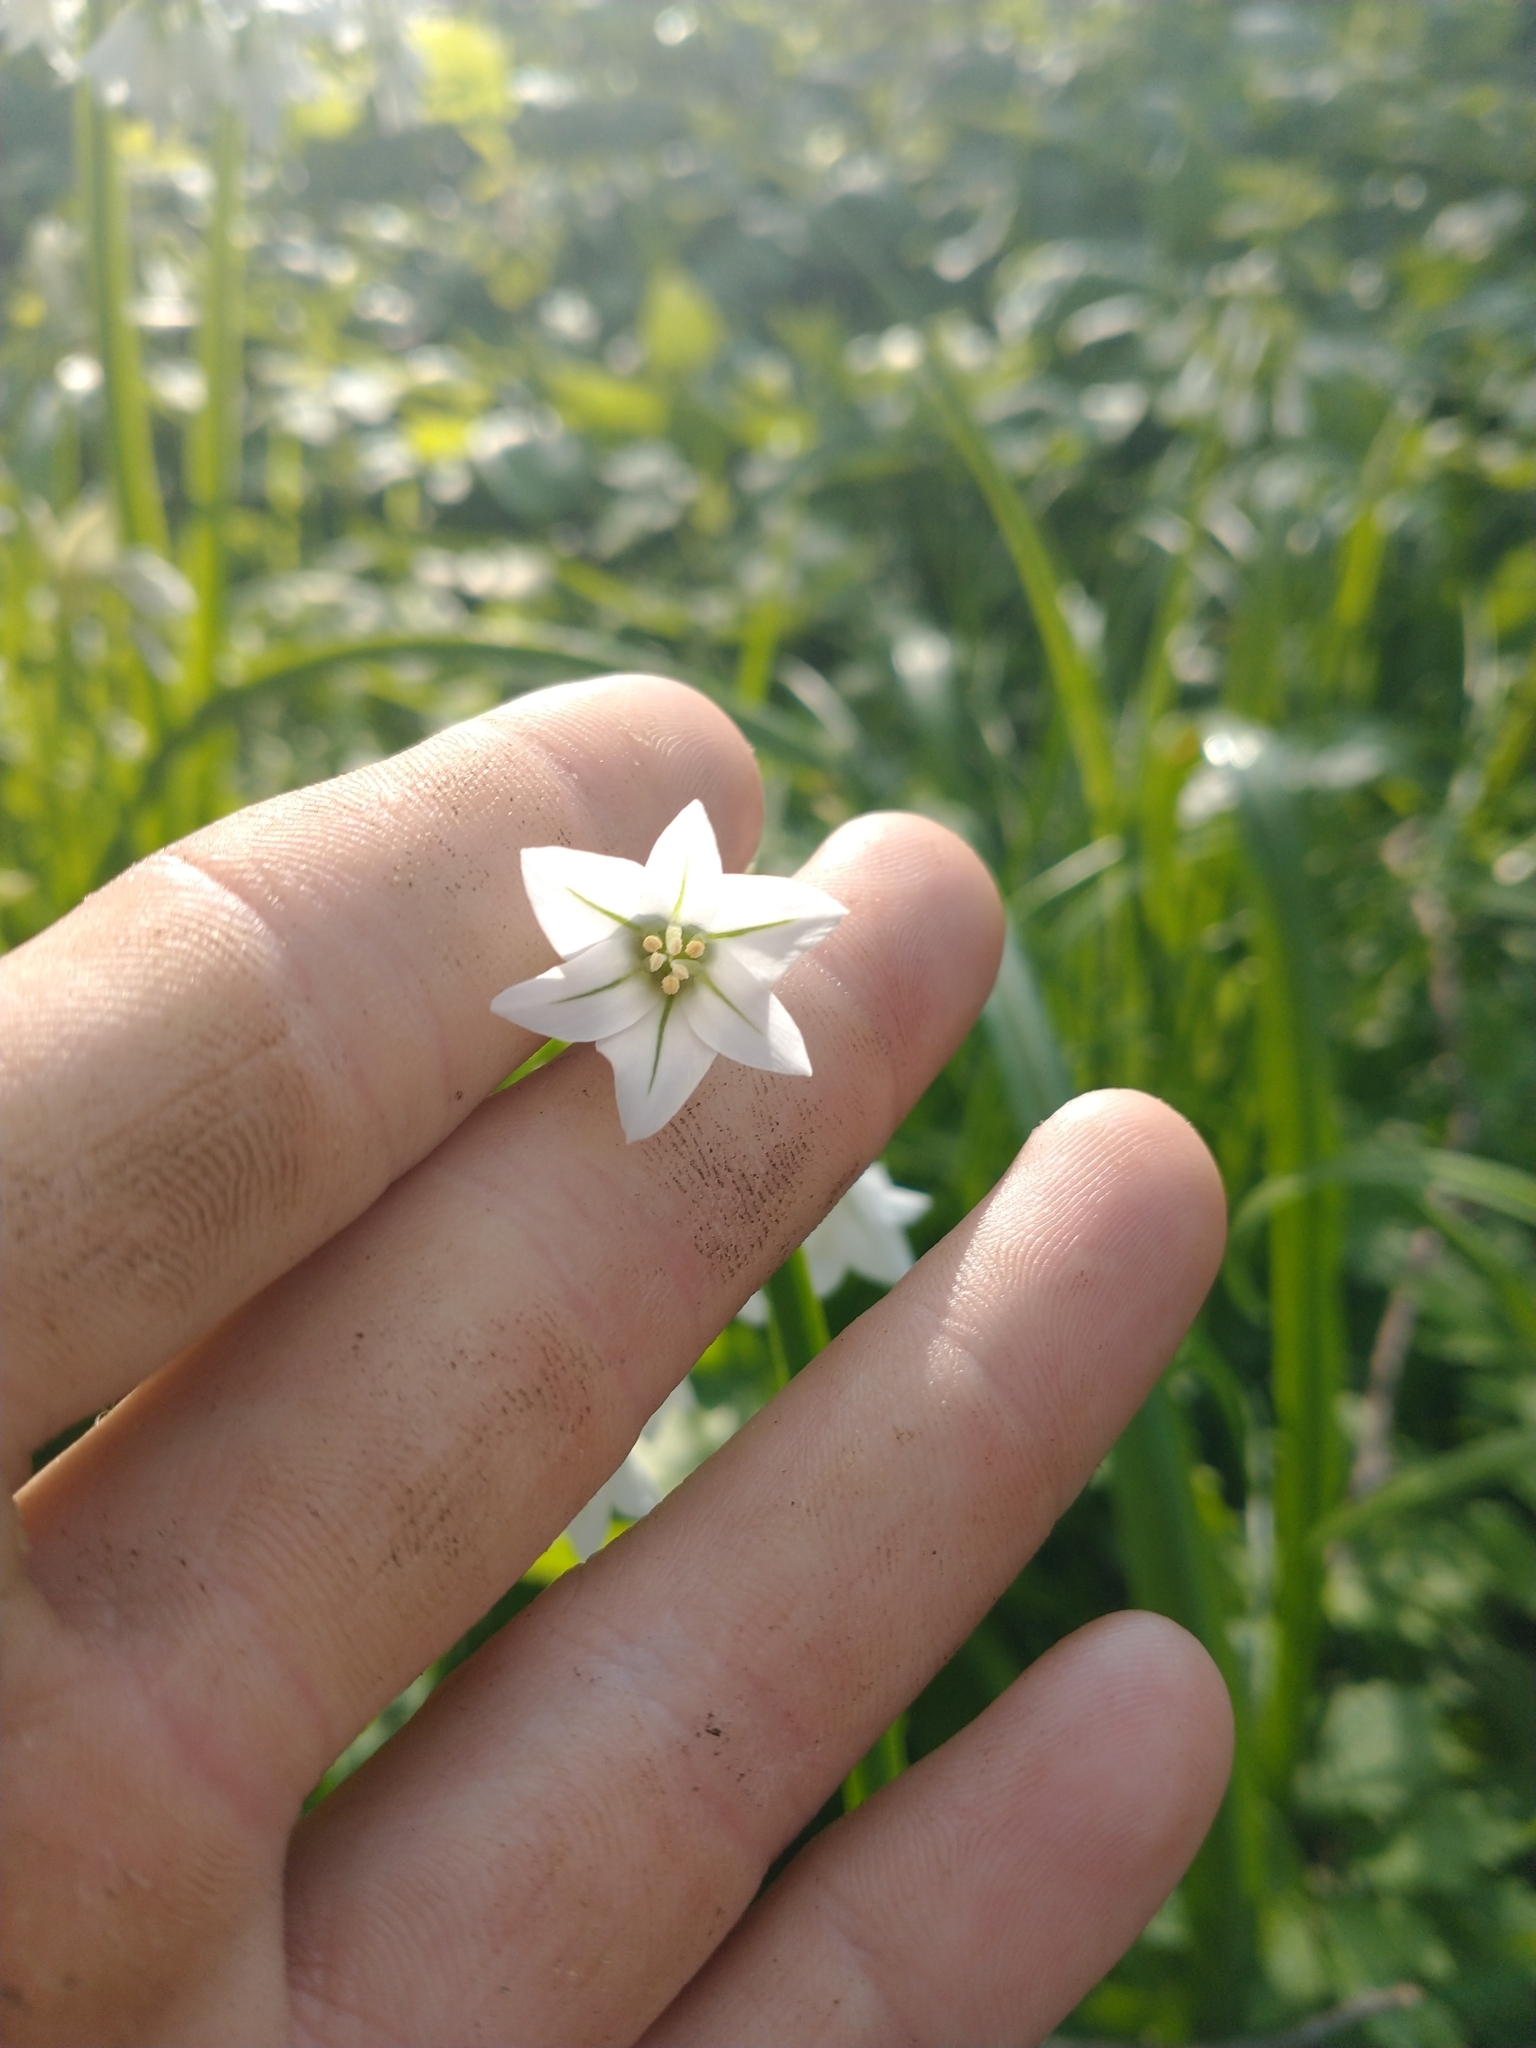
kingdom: Plantae
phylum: Tracheophyta
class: Liliopsida
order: Asparagales
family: Amaryllidaceae
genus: Allium
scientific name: Allium triquetrum
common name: Three-cornered garlic
